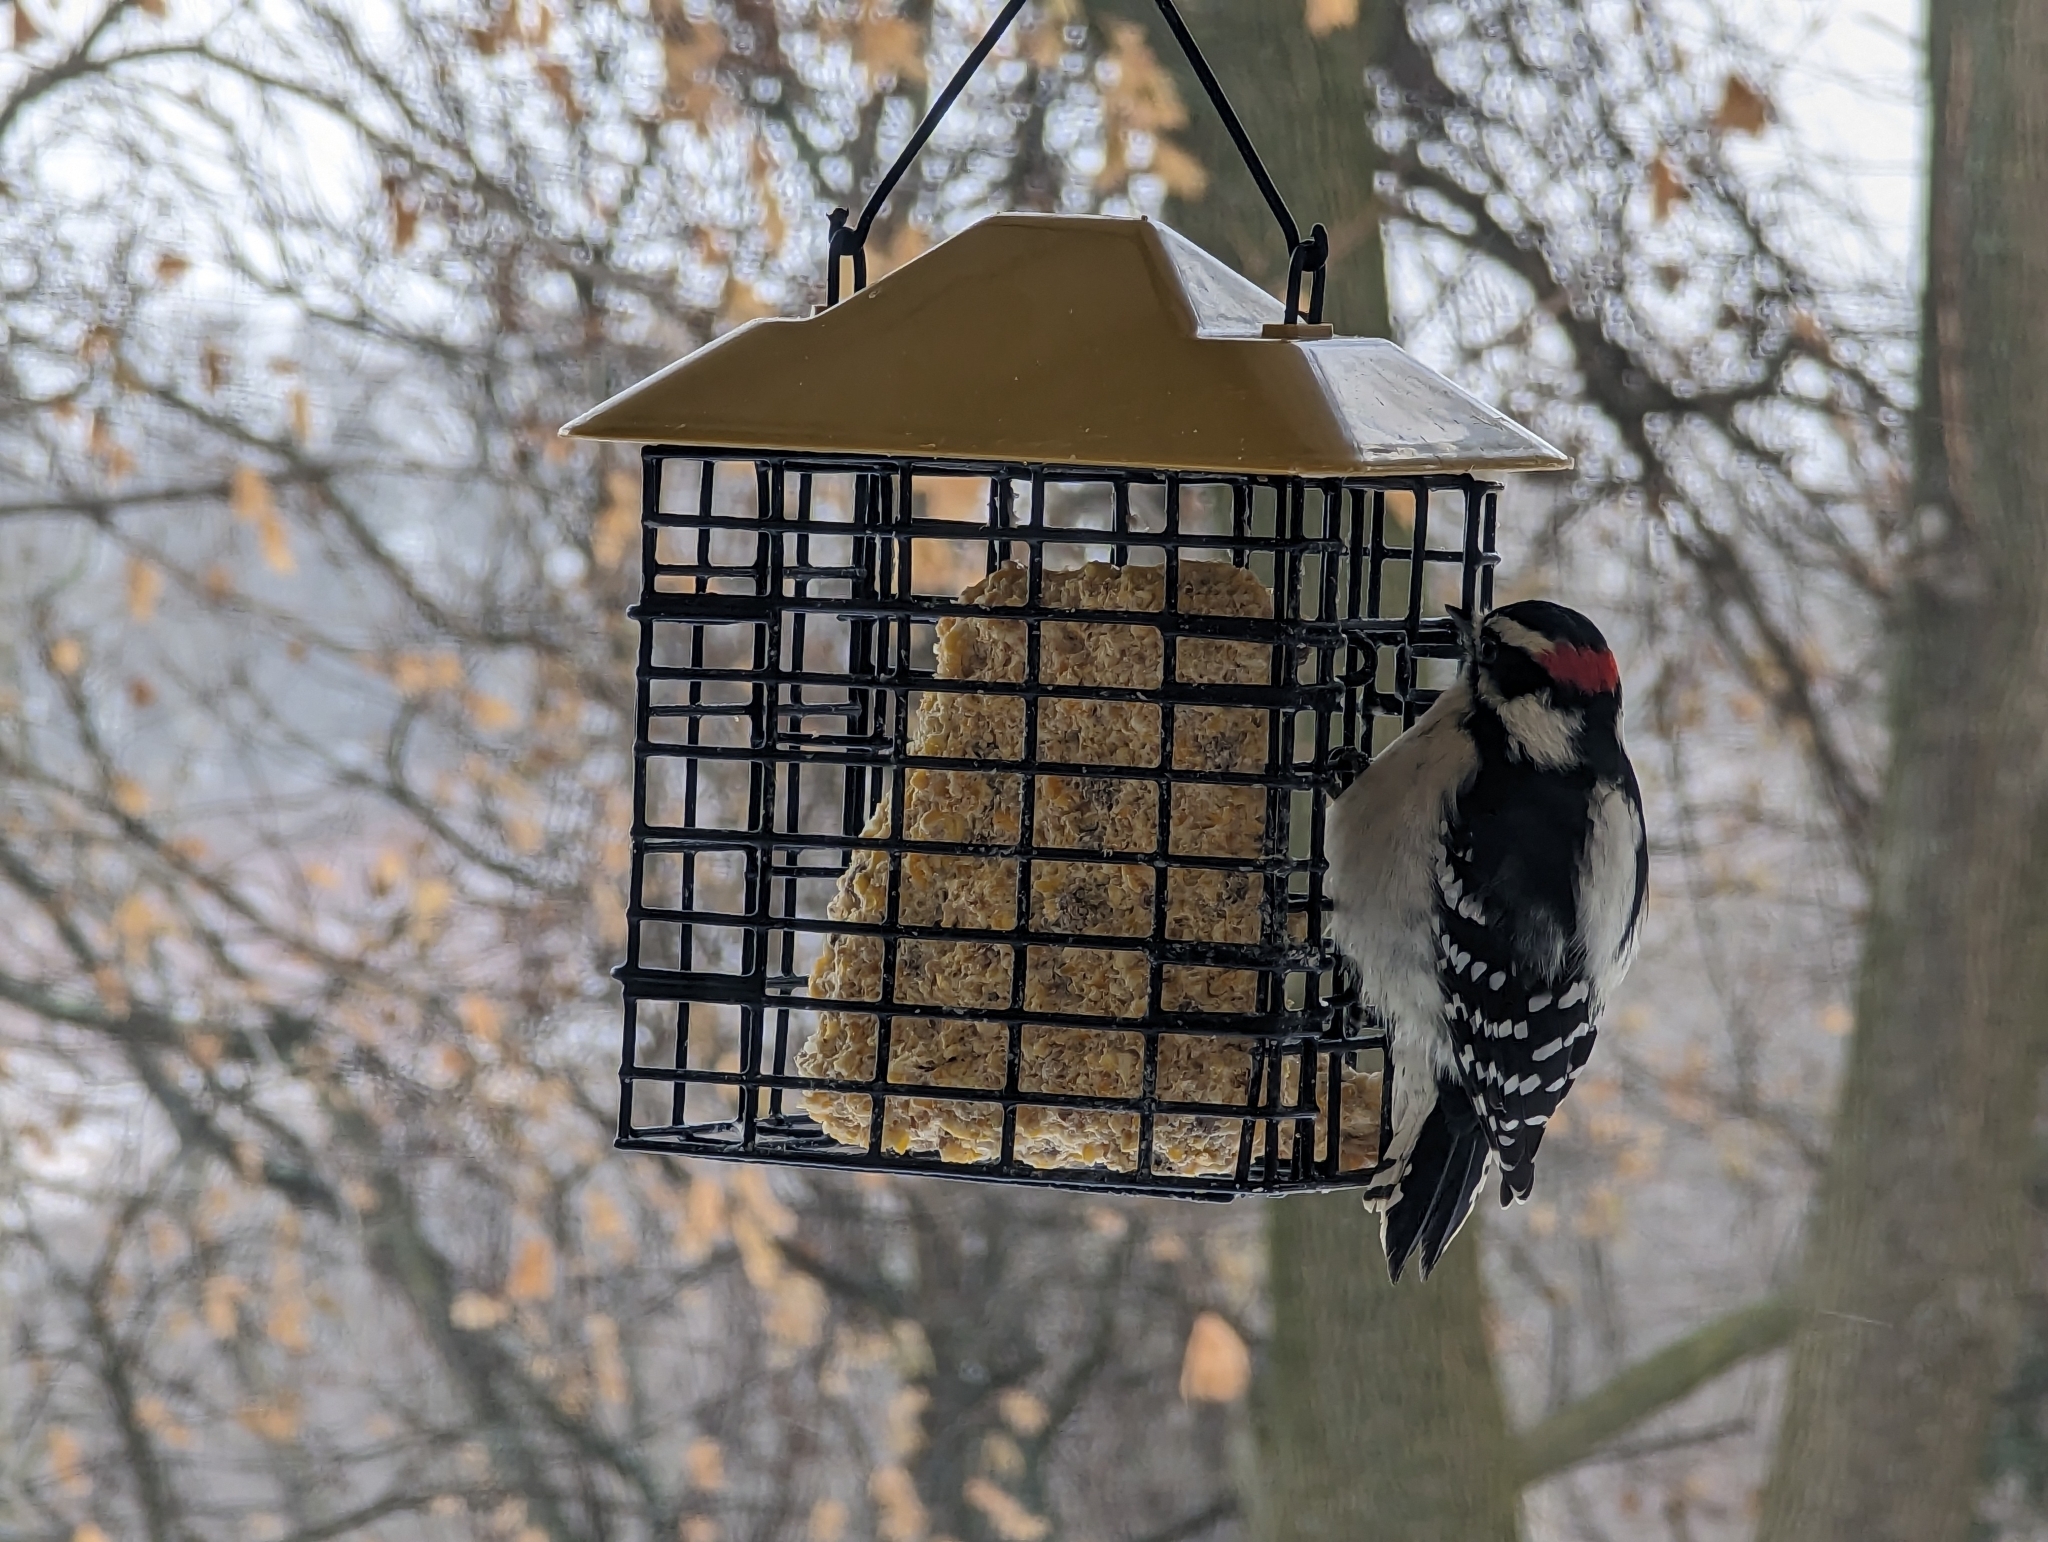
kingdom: Animalia
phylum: Chordata
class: Aves
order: Piciformes
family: Picidae
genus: Dryobates
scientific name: Dryobates pubescens
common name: Downy woodpecker
